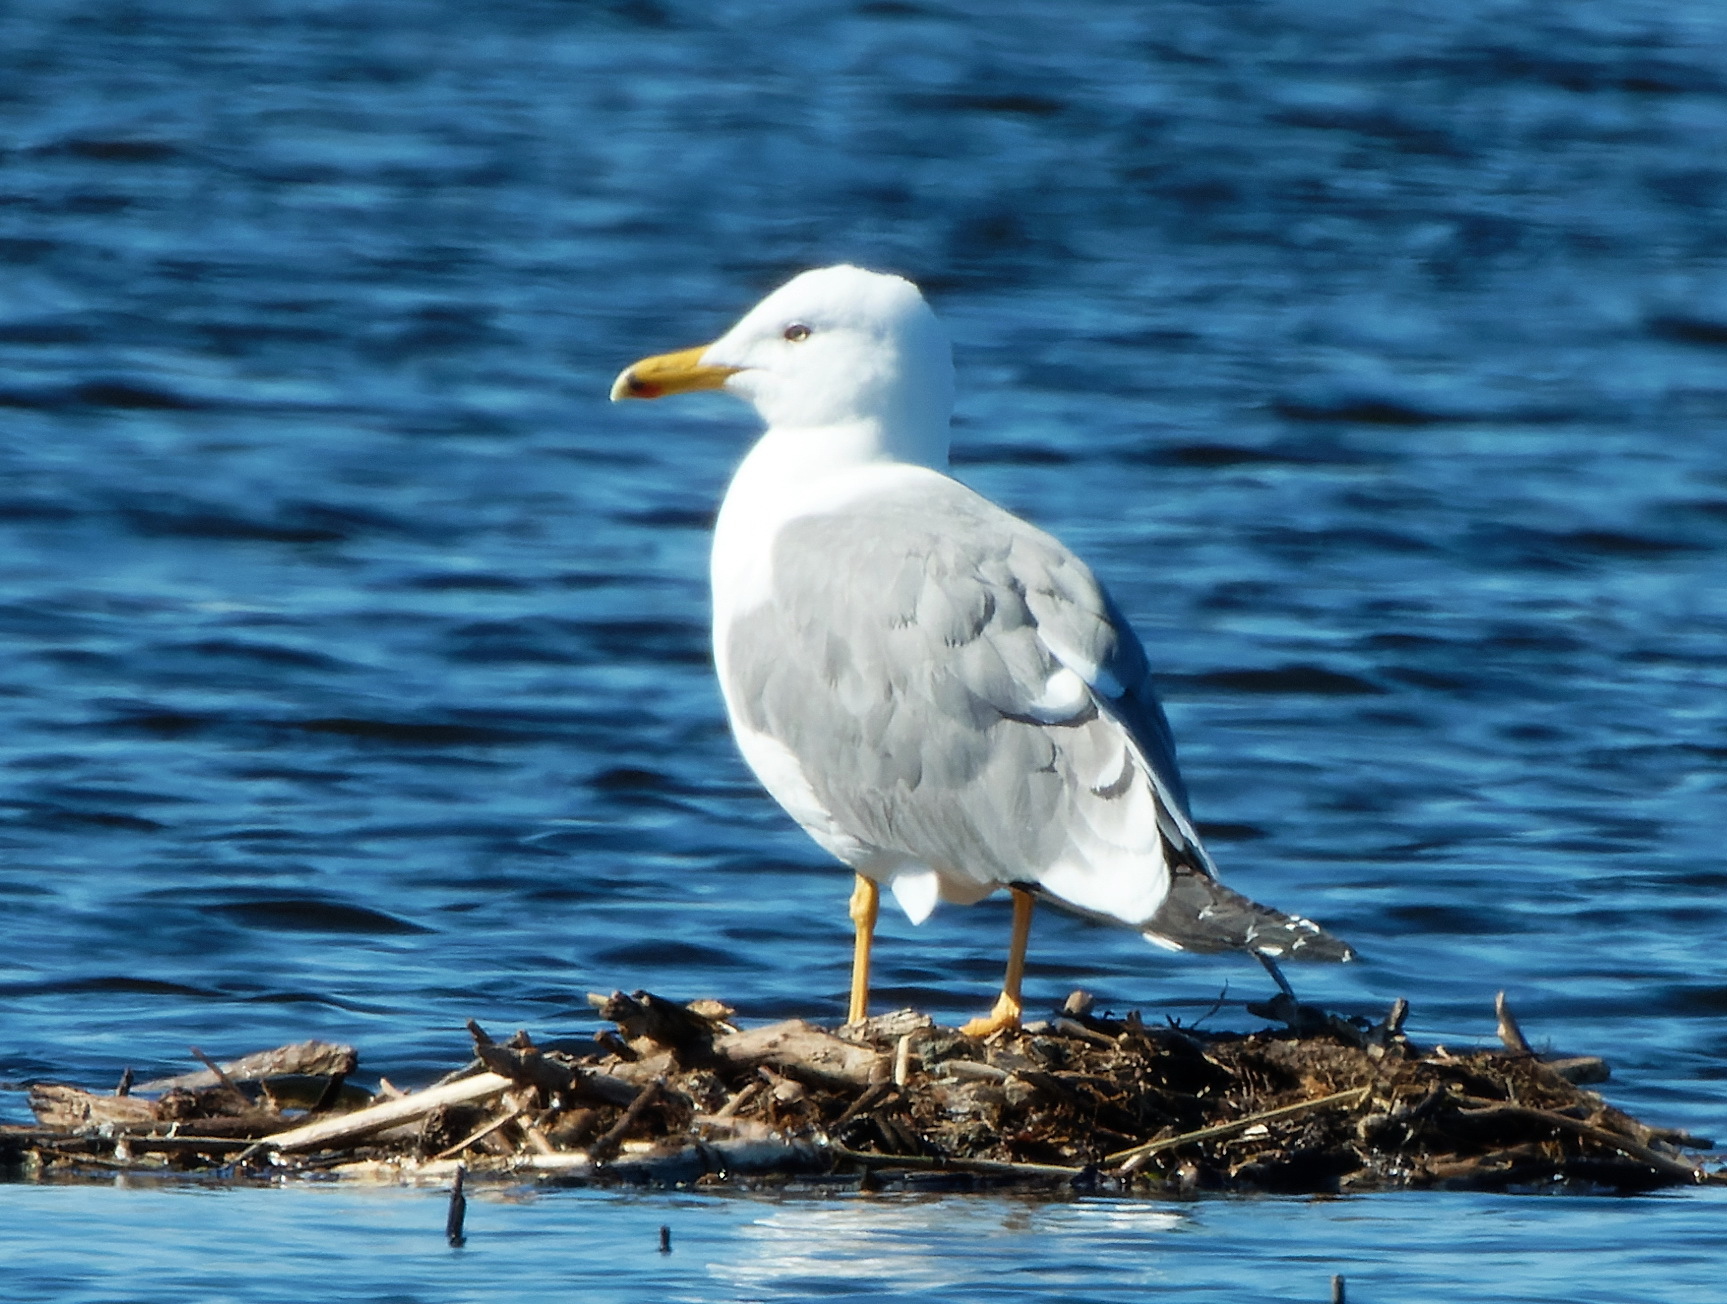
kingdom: Animalia
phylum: Chordata
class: Aves
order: Charadriiformes
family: Laridae
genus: Larus
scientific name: Larus cachinnans
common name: Caspian gull
